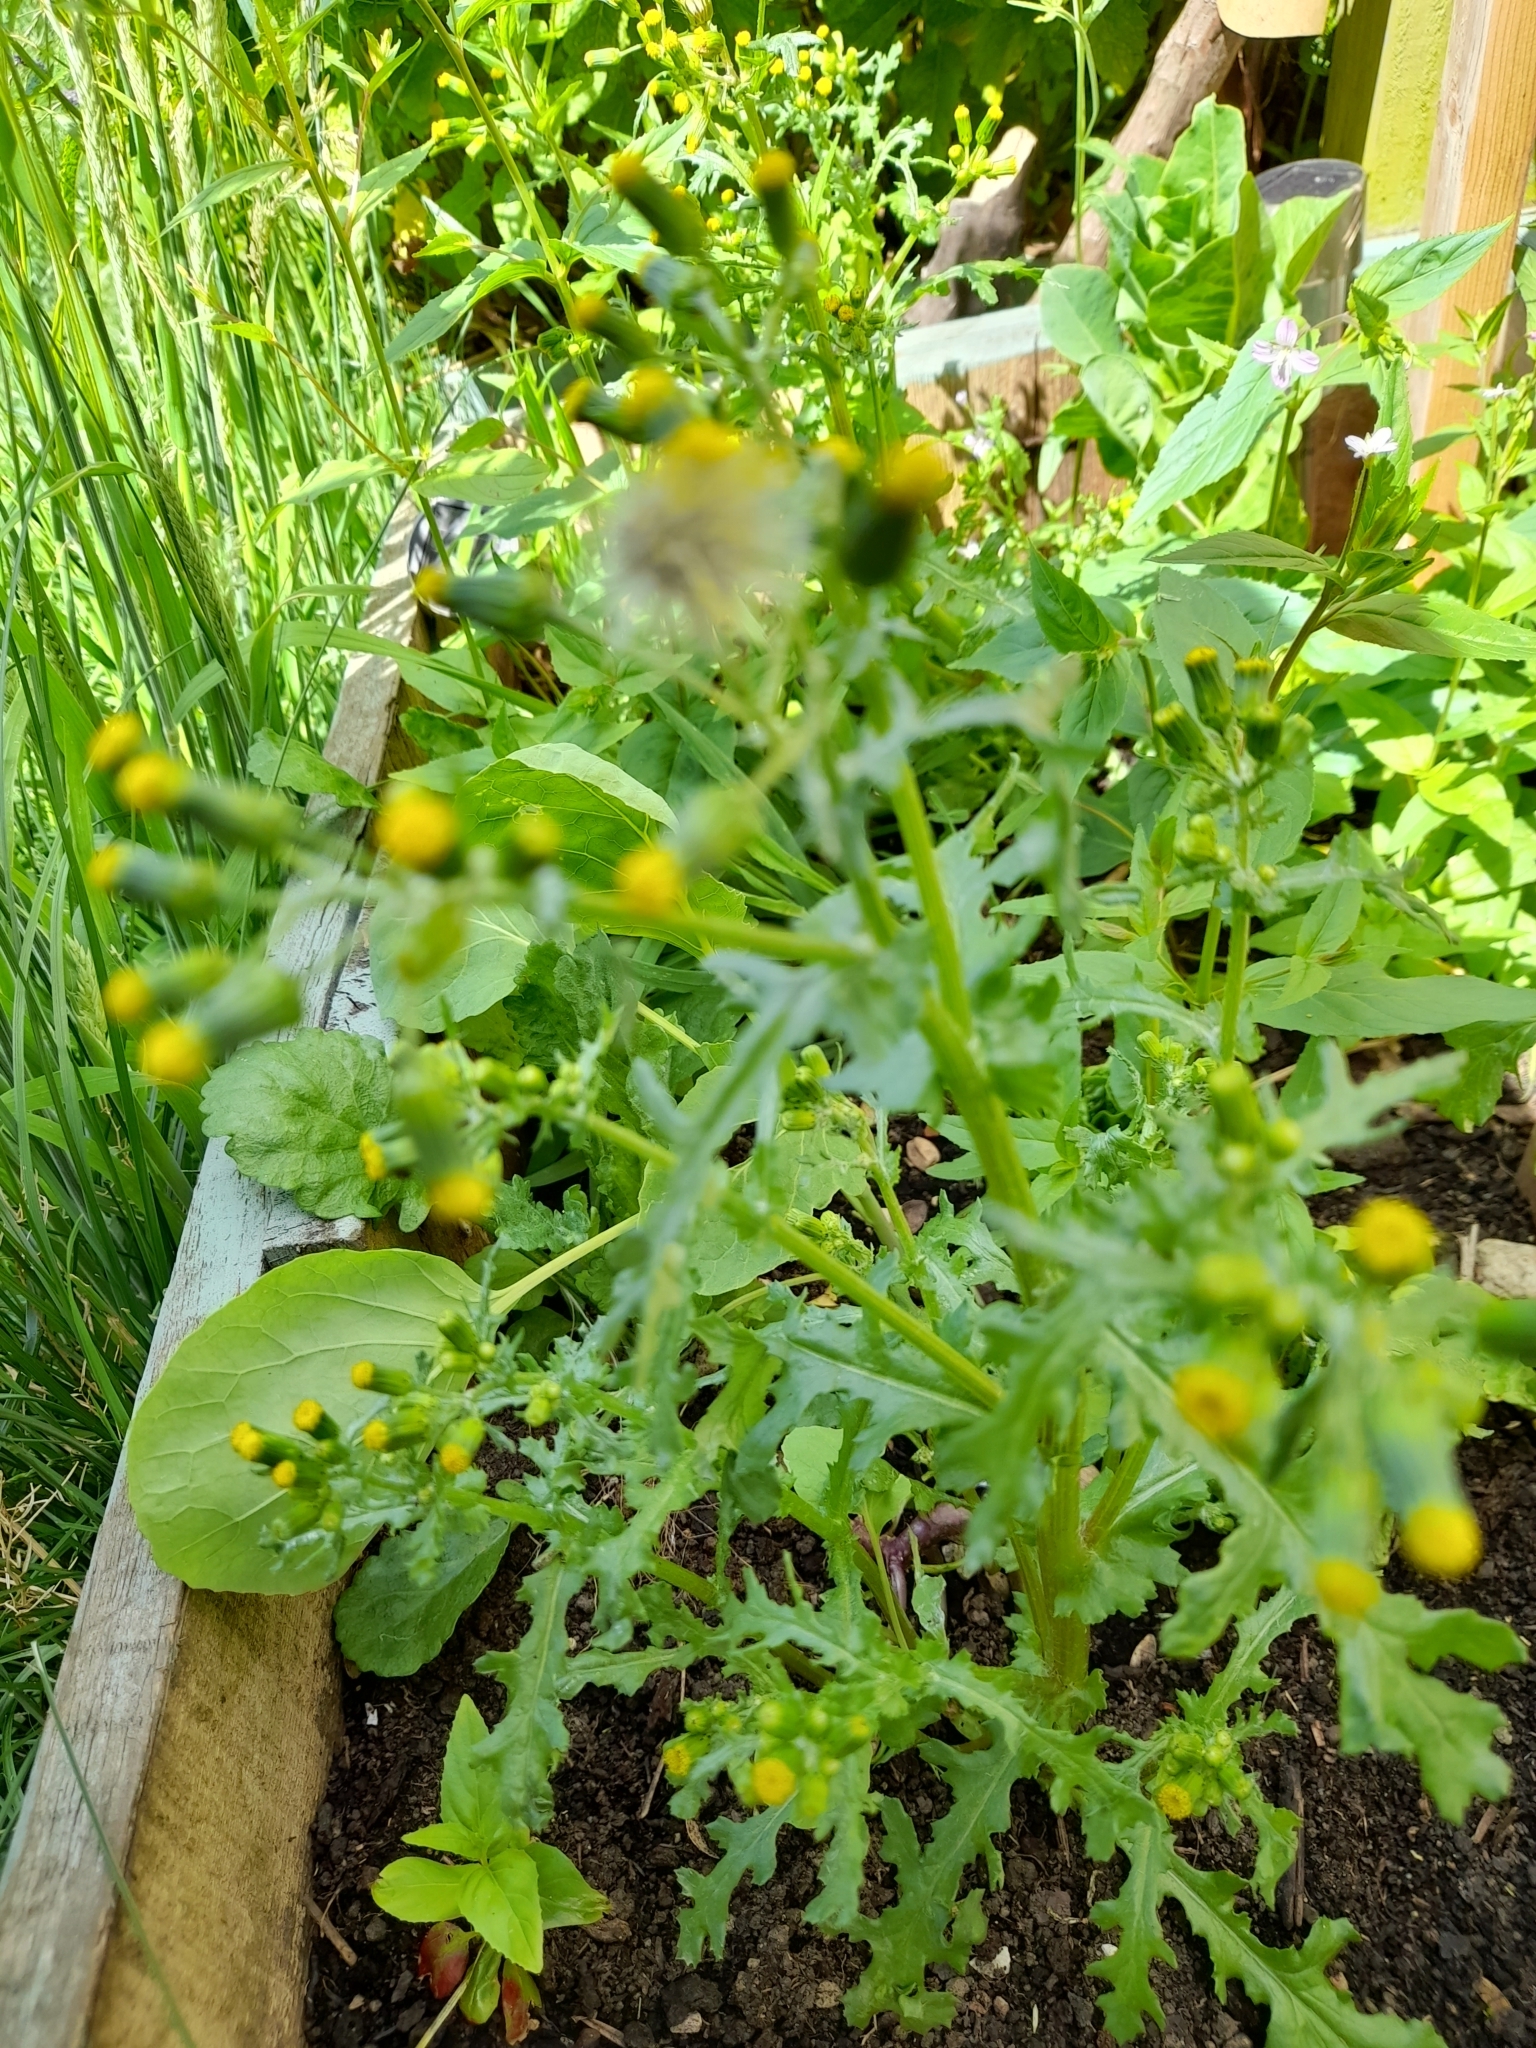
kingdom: Plantae
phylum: Tracheophyta
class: Magnoliopsida
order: Asterales
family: Asteraceae
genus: Senecio
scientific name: Senecio vulgaris
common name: Old-man-in-the-spring
